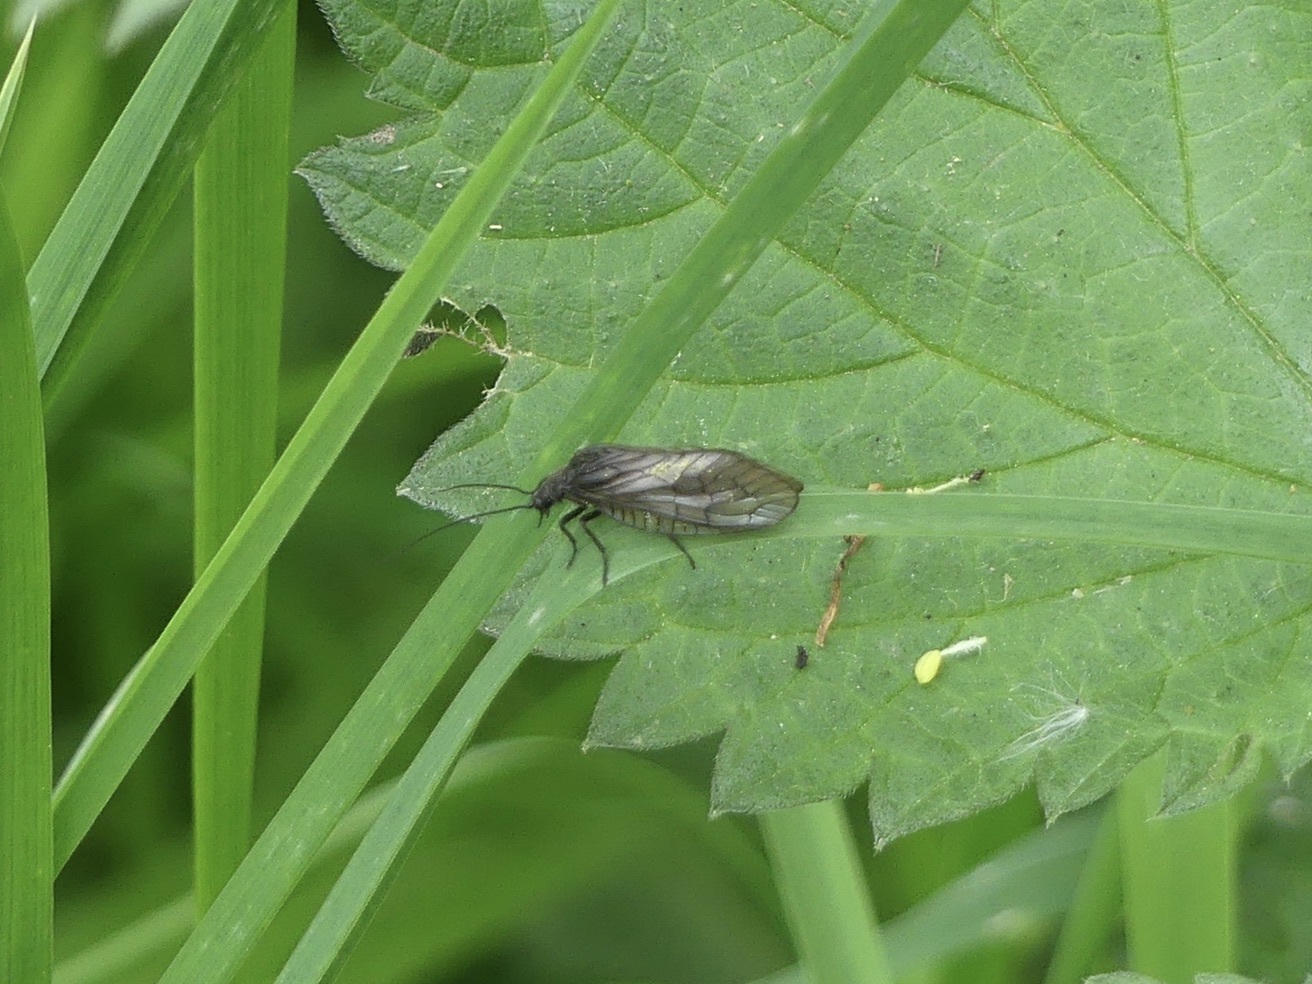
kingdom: Animalia
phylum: Arthropoda
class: Insecta
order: Megaloptera
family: Sialidae
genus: Sialis
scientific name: Sialis
